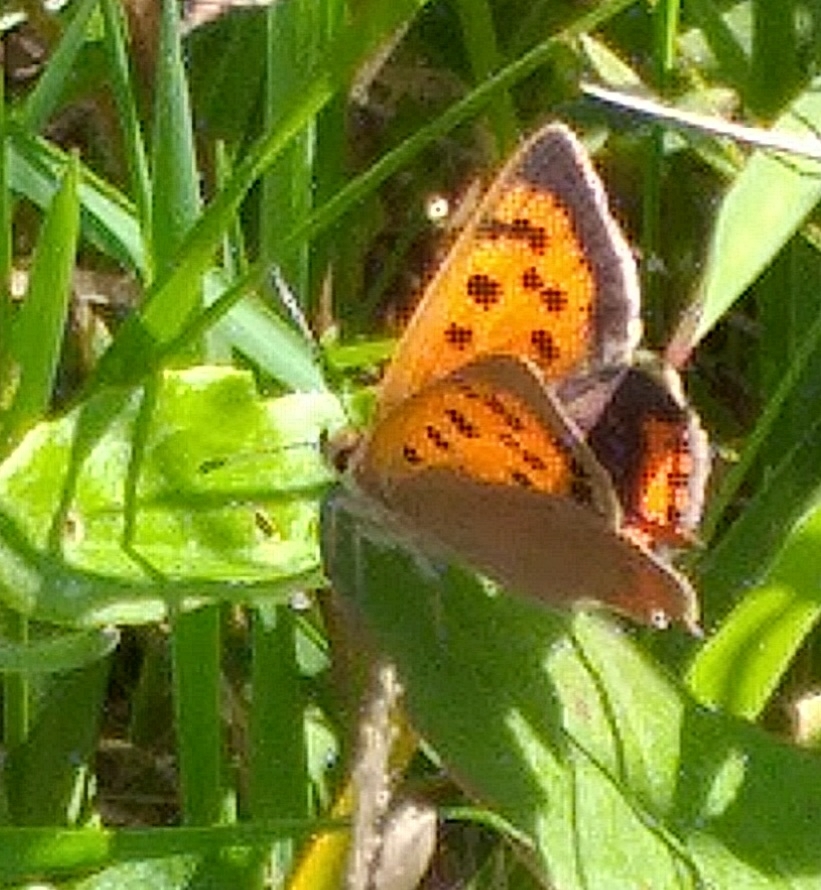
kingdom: Animalia
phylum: Arthropoda
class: Insecta
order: Lepidoptera
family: Lycaenidae
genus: Lycaena
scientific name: Lycaena phlaeas
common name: Small copper
